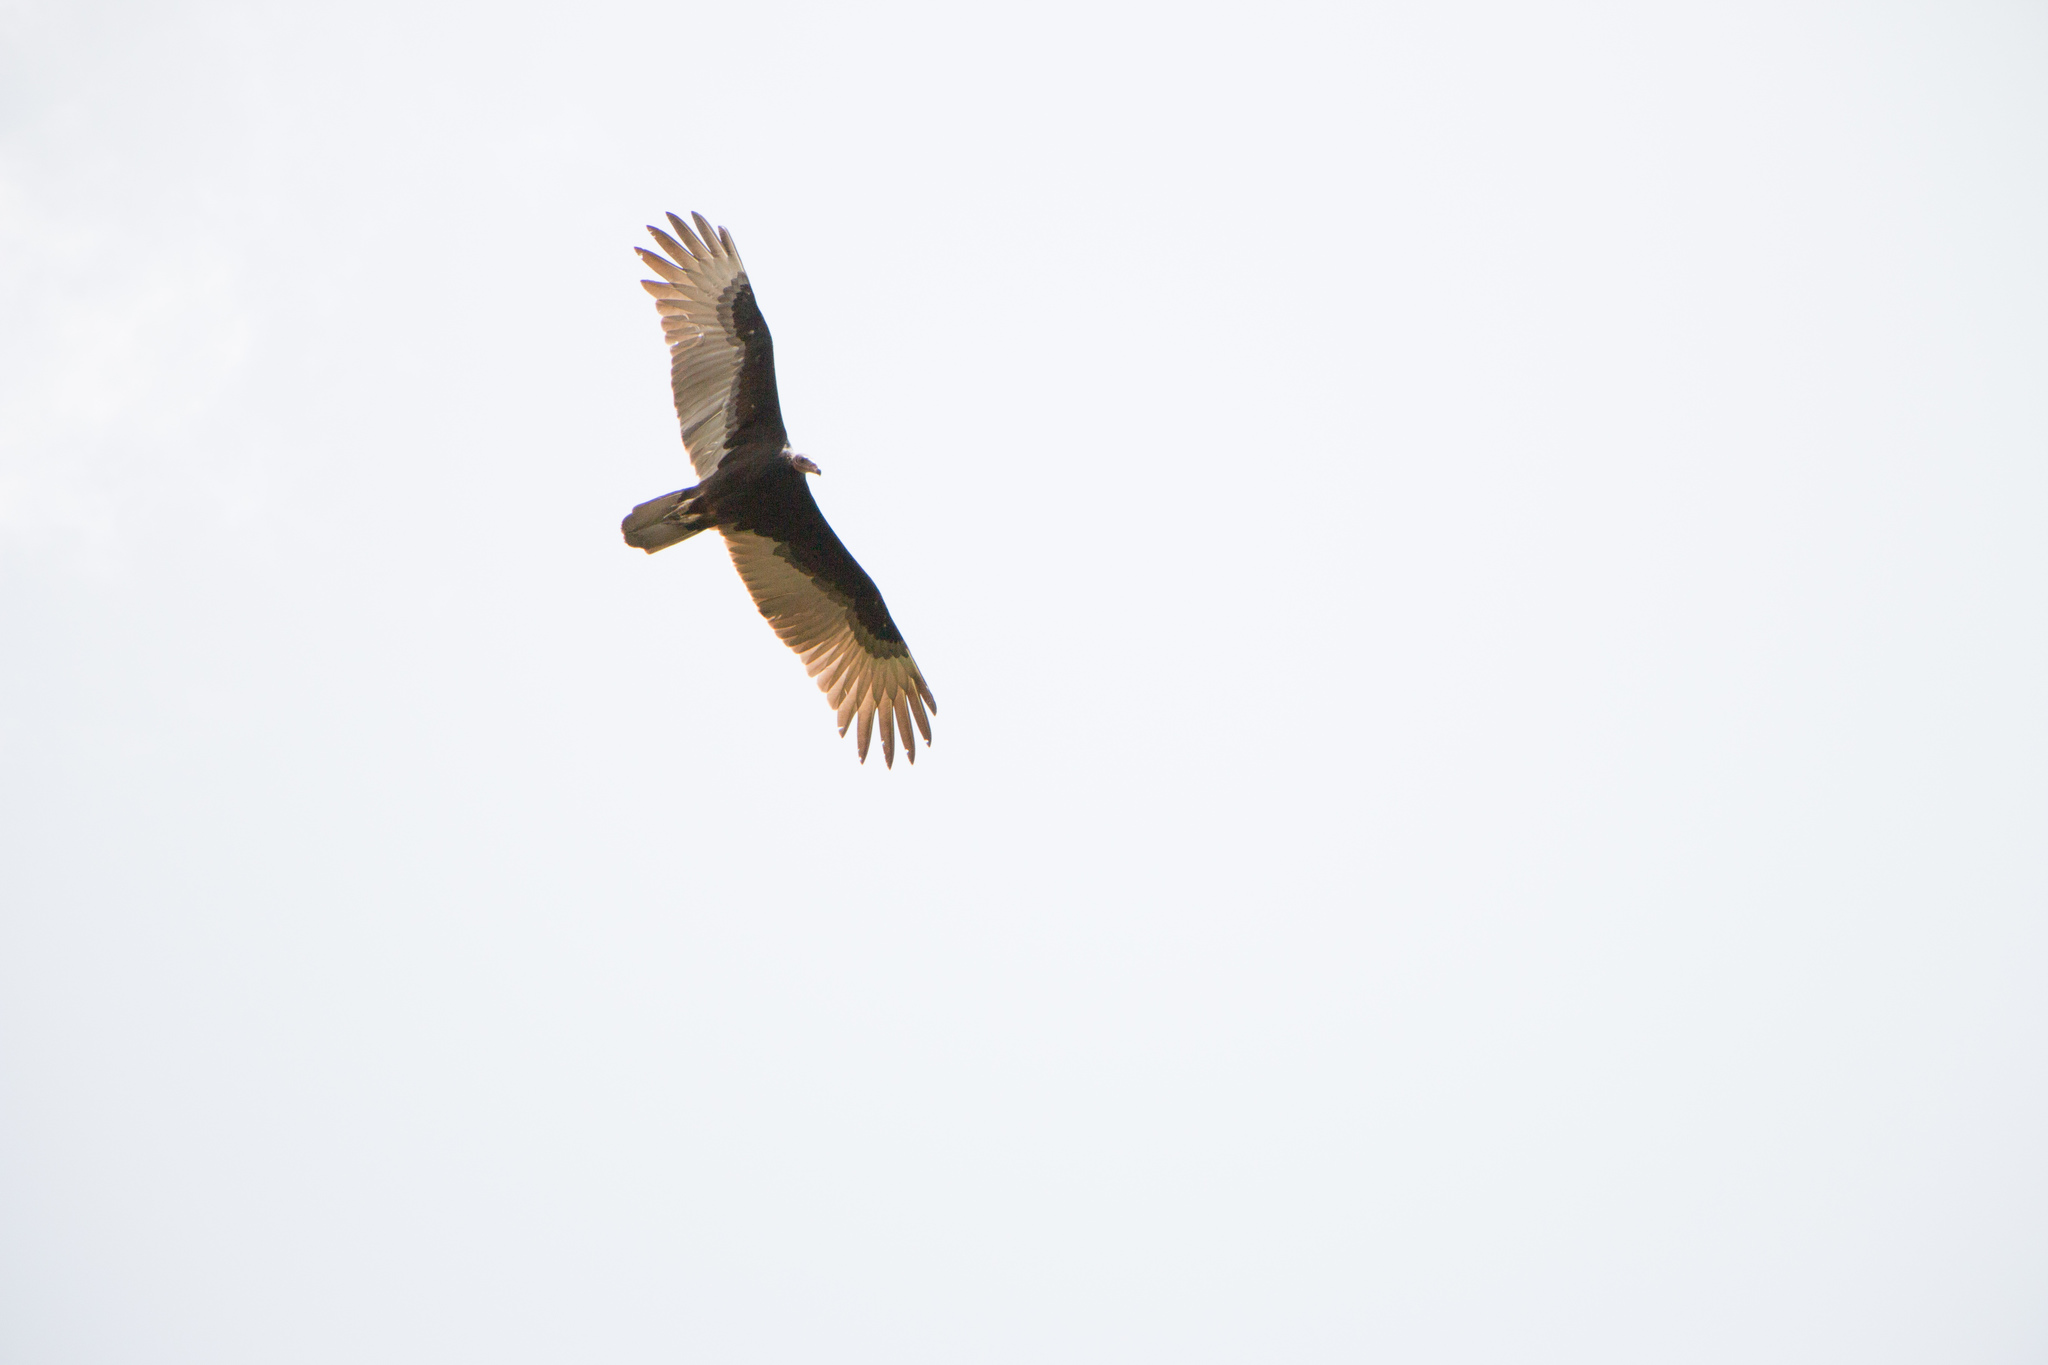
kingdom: Animalia
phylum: Chordata
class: Aves
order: Accipitriformes
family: Cathartidae
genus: Cathartes
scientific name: Cathartes aura
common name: Turkey vulture
